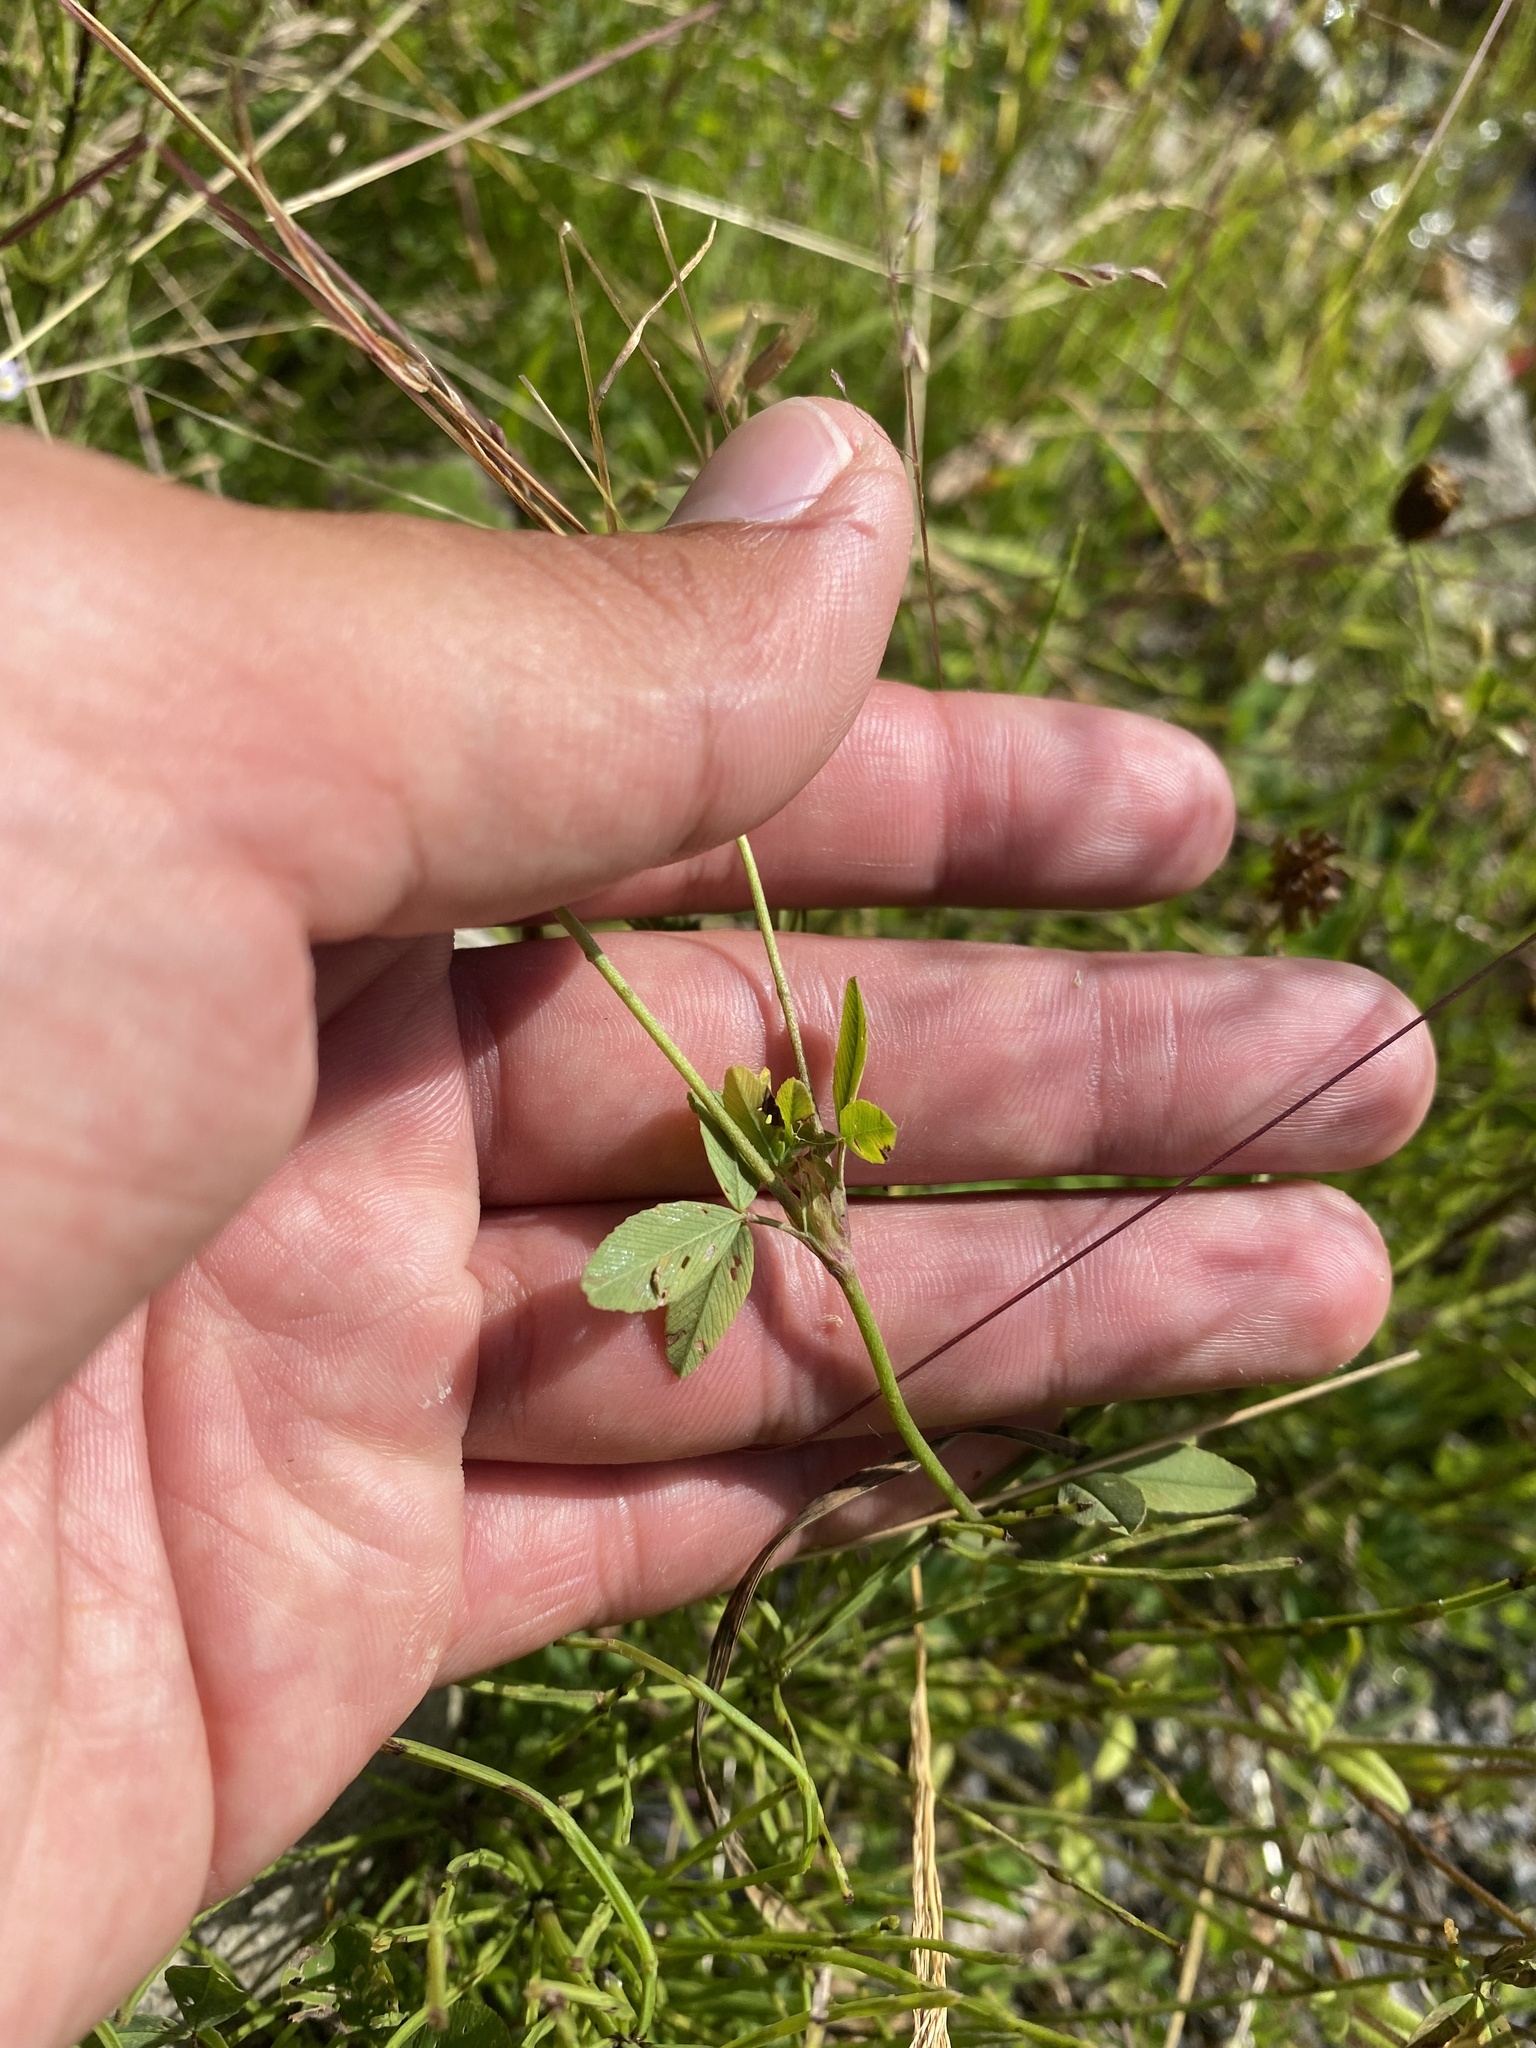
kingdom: Plantae
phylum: Tracheophyta
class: Magnoliopsida
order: Fabales
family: Fabaceae
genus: Trifolium
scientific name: Trifolium spadiceum
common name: Brown moor clover
